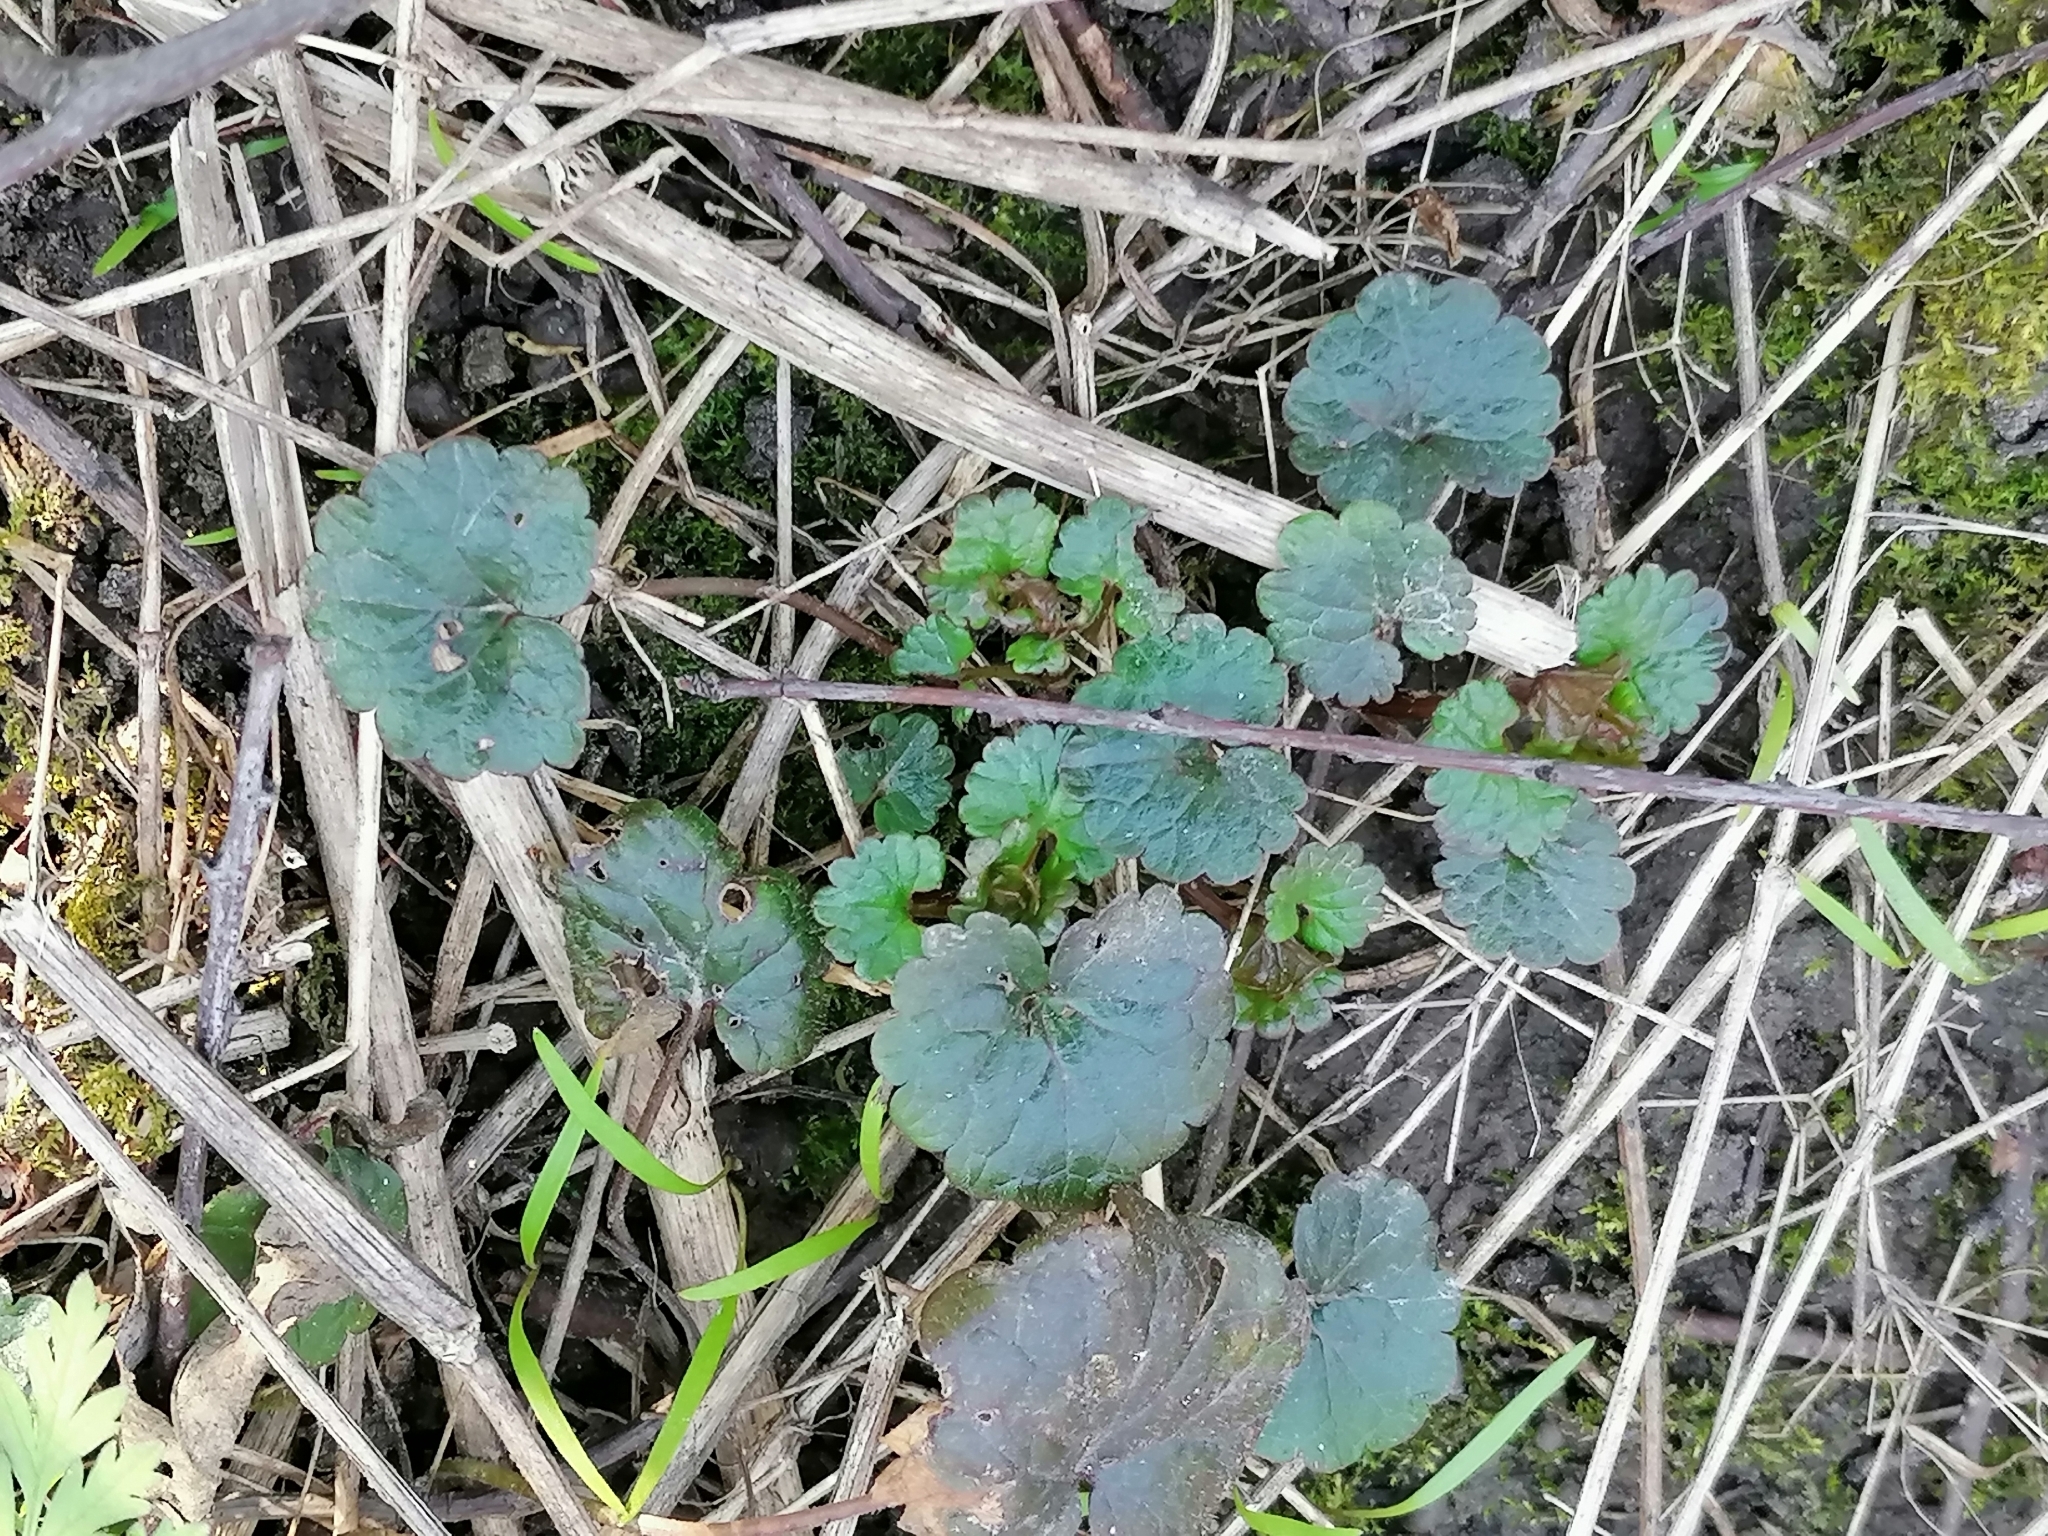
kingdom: Plantae
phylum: Tracheophyta
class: Magnoliopsida
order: Lamiales
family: Lamiaceae
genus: Glechoma
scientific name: Glechoma hederacea
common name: Ground ivy
